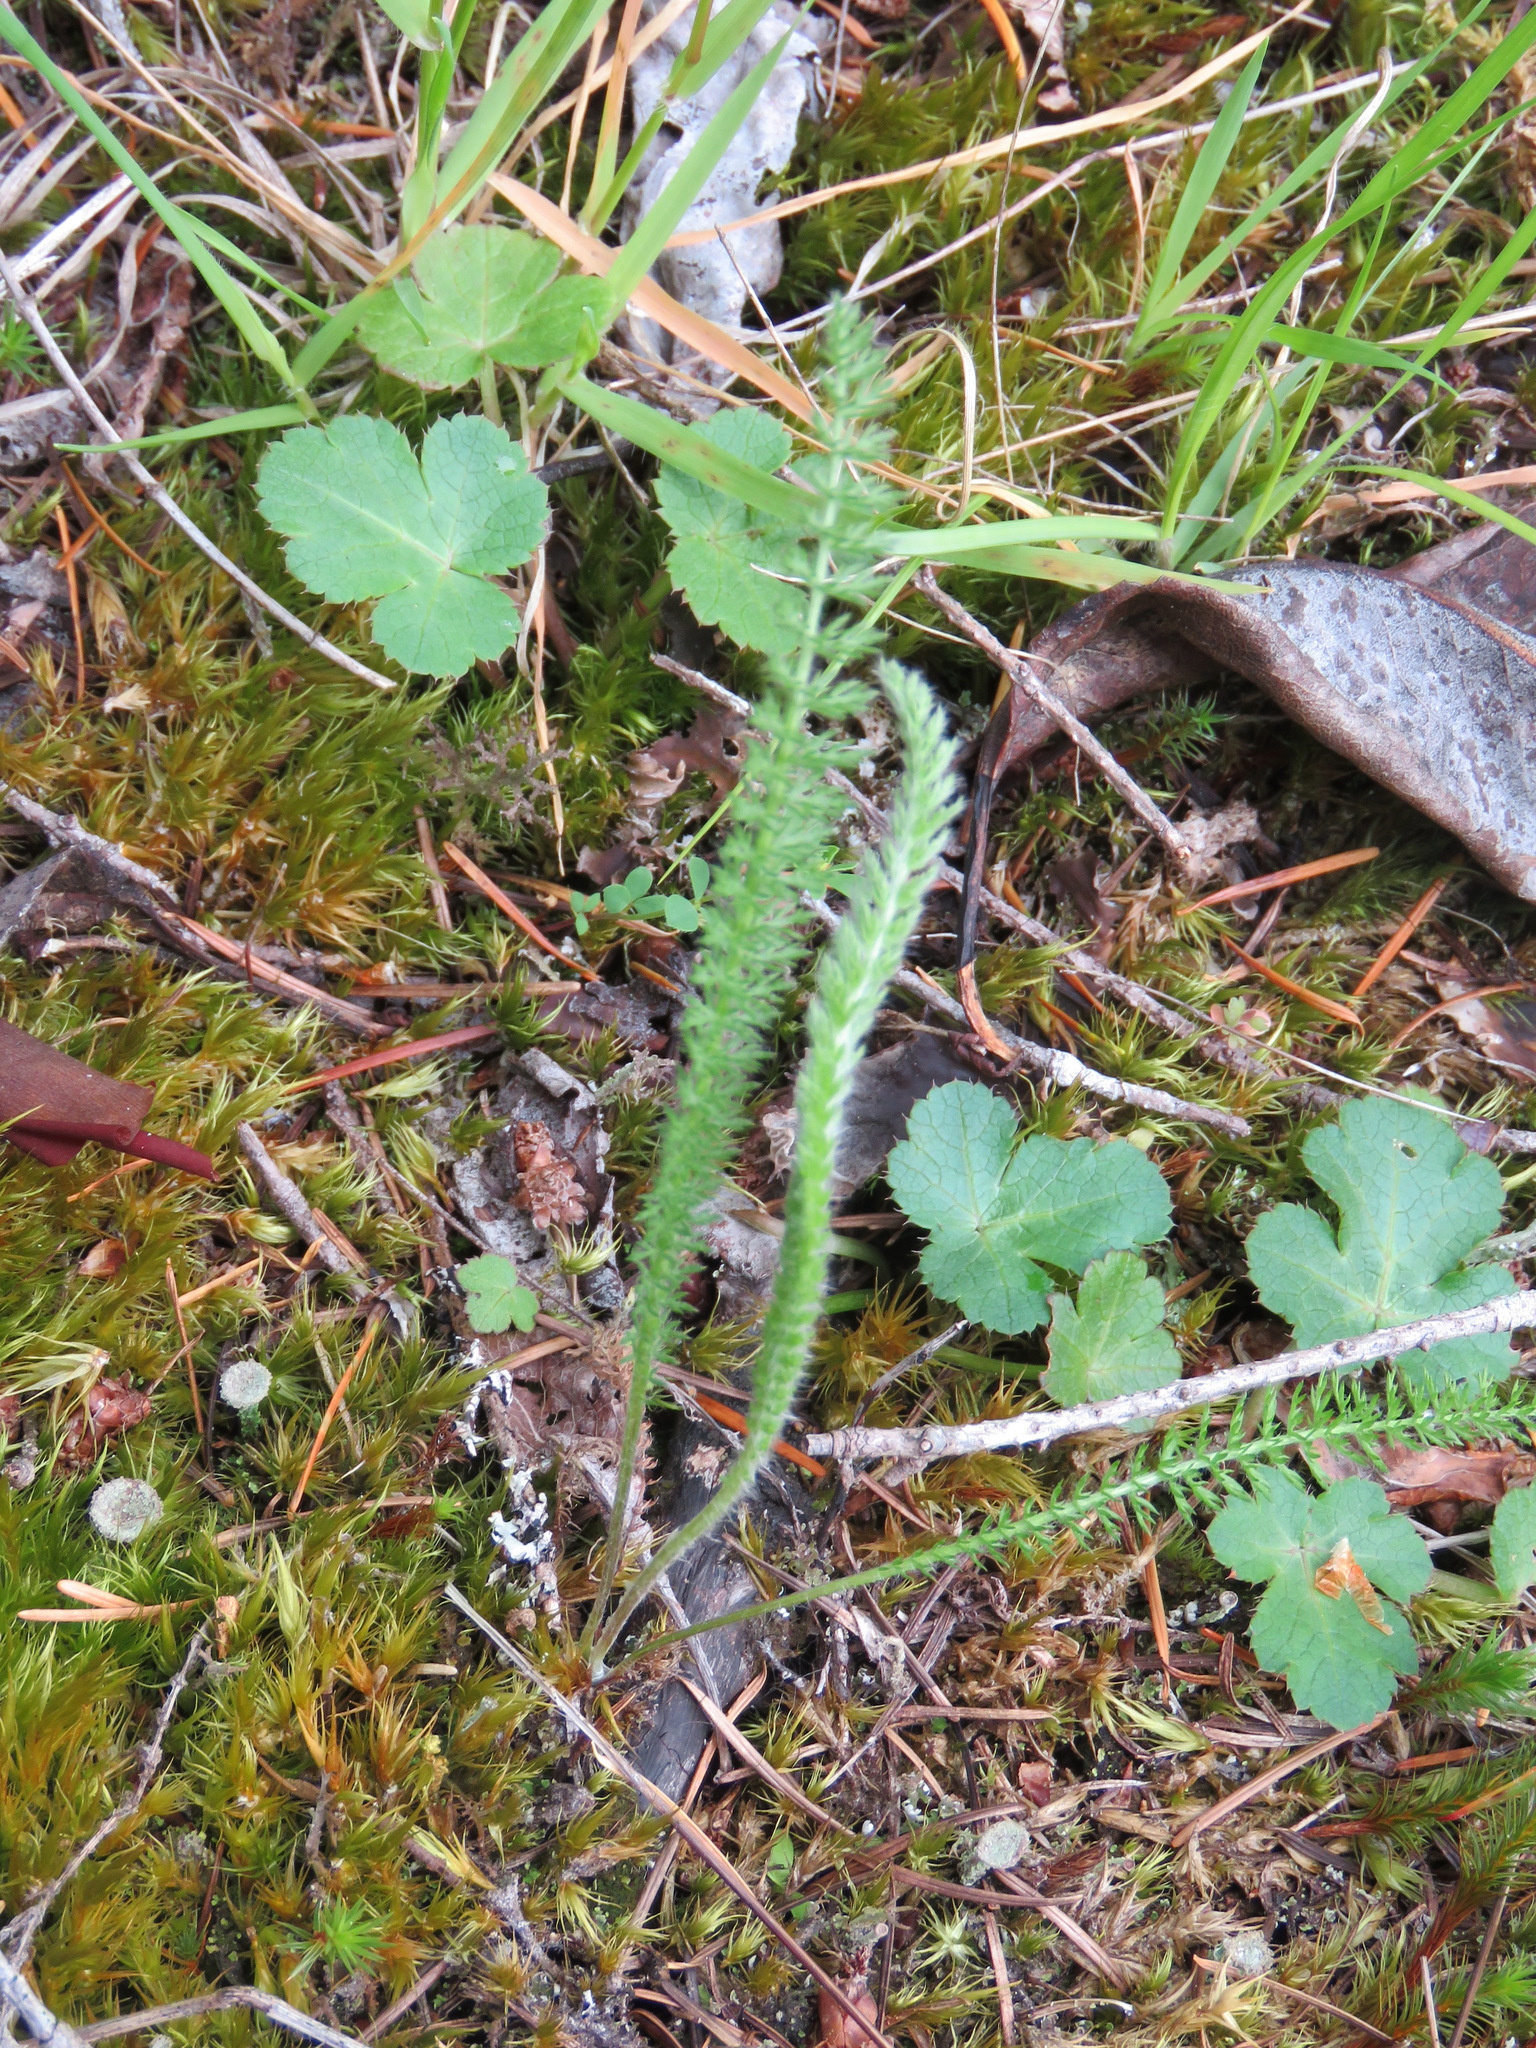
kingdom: Plantae
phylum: Tracheophyta
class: Magnoliopsida
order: Asterales
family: Asteraceae
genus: Achillea
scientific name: Achillea millefolium
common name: Yarrow
